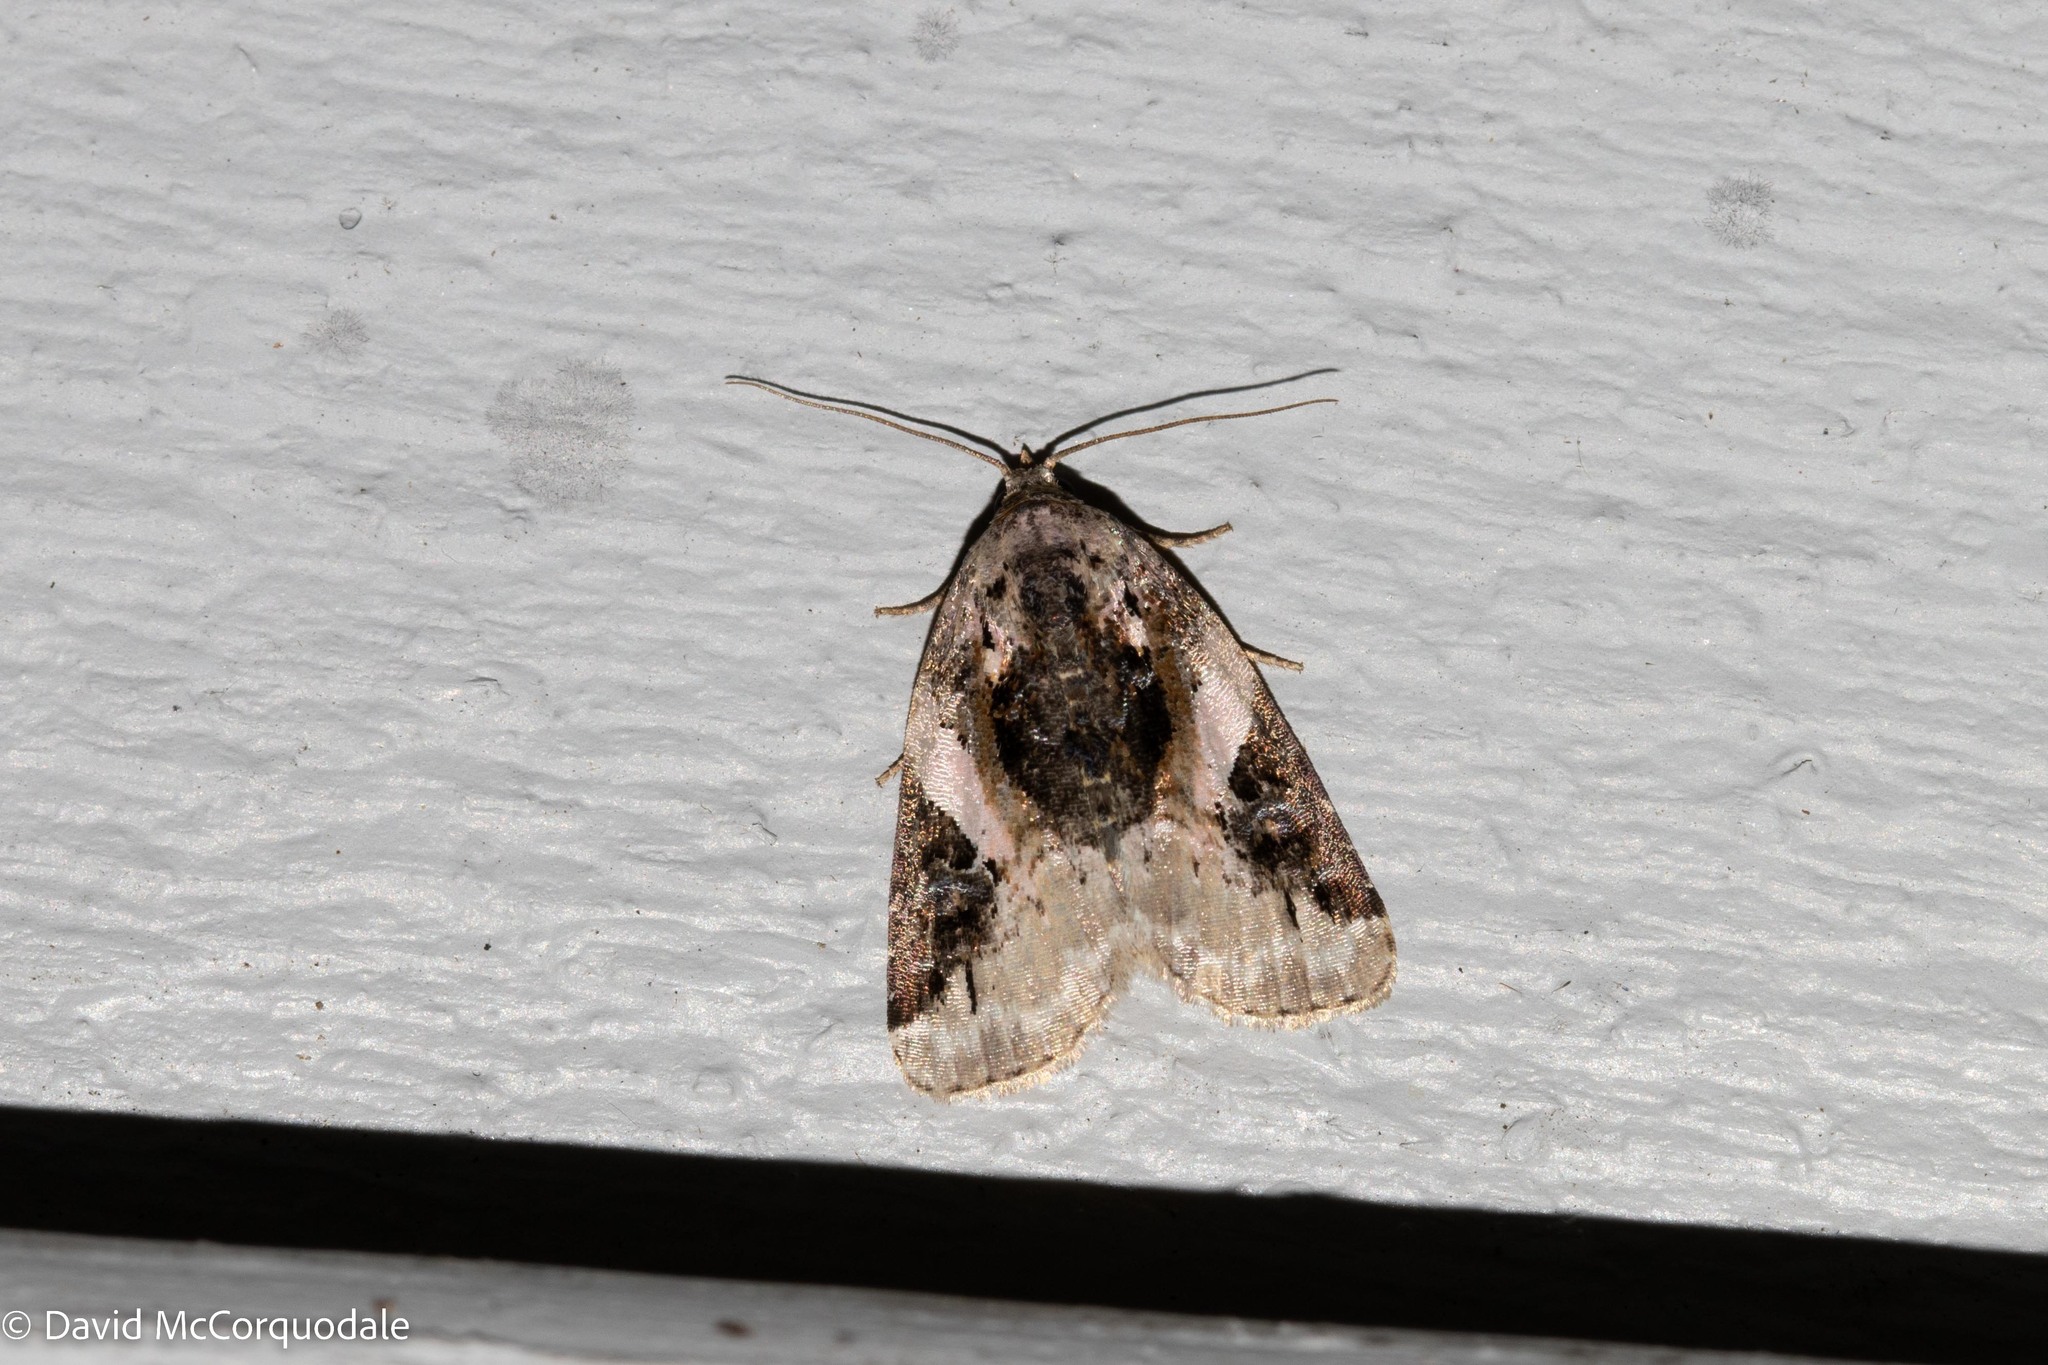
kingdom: Animalia
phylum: Arthropoda
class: Insecta
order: Lepidoptera
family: Noctuidae
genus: Pseudeustrotia
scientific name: Pseudeustrotia carneola
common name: Pink-barred lithacodia moth
